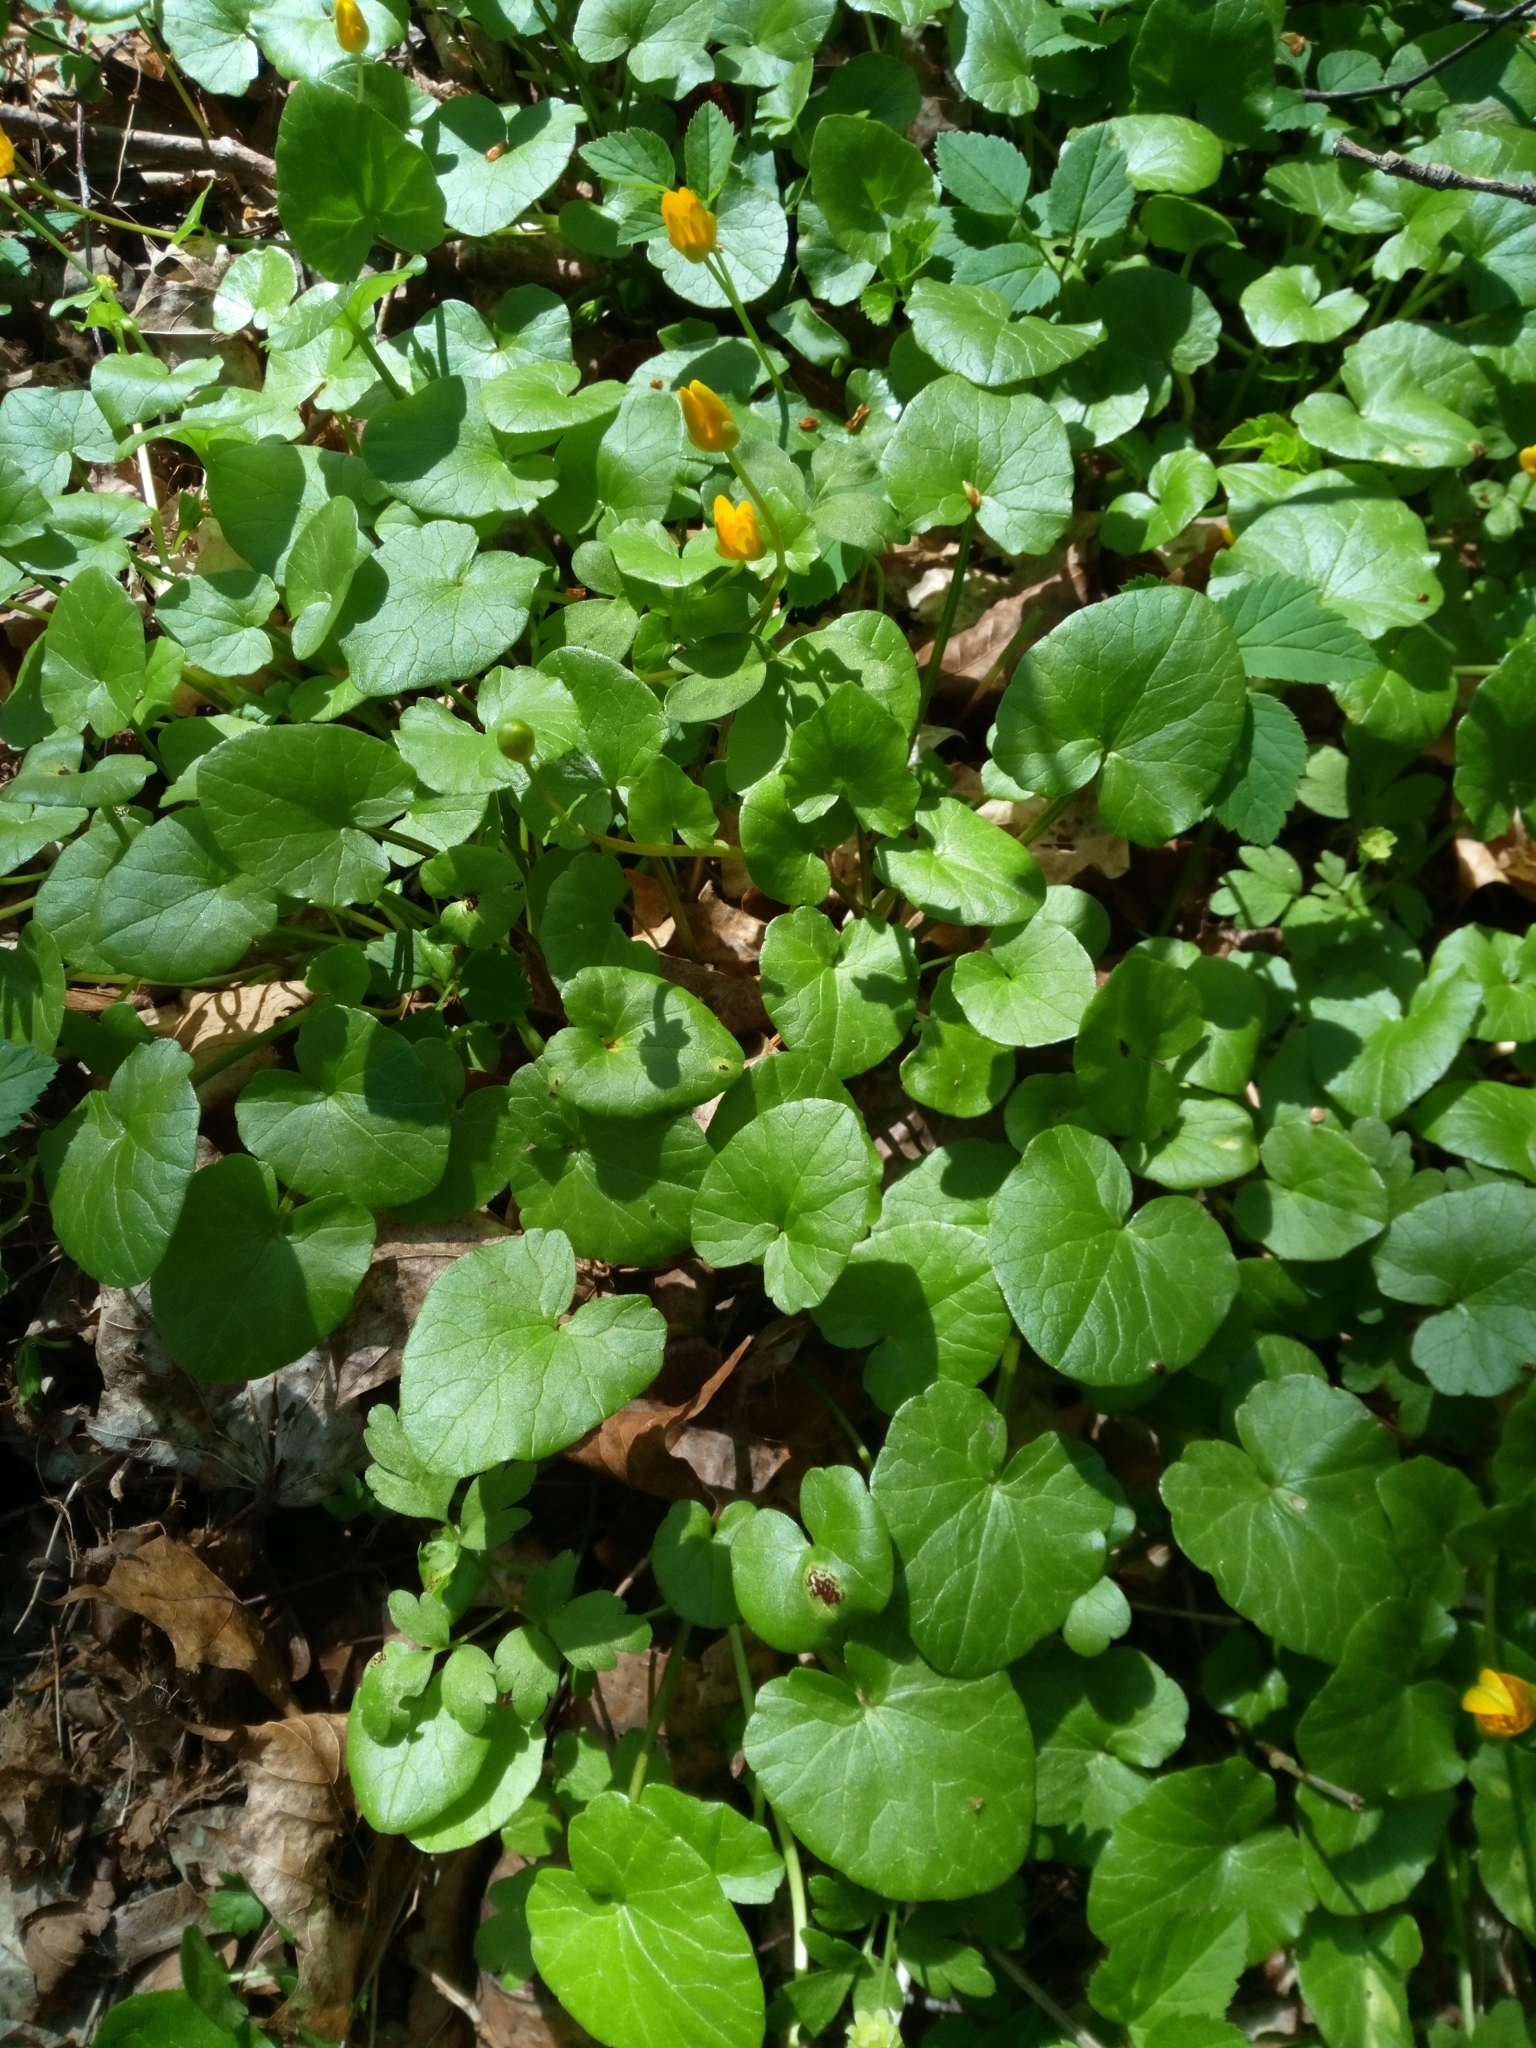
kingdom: Fungi
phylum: Basidiomycota
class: Pucciniomycetes
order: Pucciniales
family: Pucciniaceae
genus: Uromyces
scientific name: Uromyces ficariae
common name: Bitter chocolate rust
